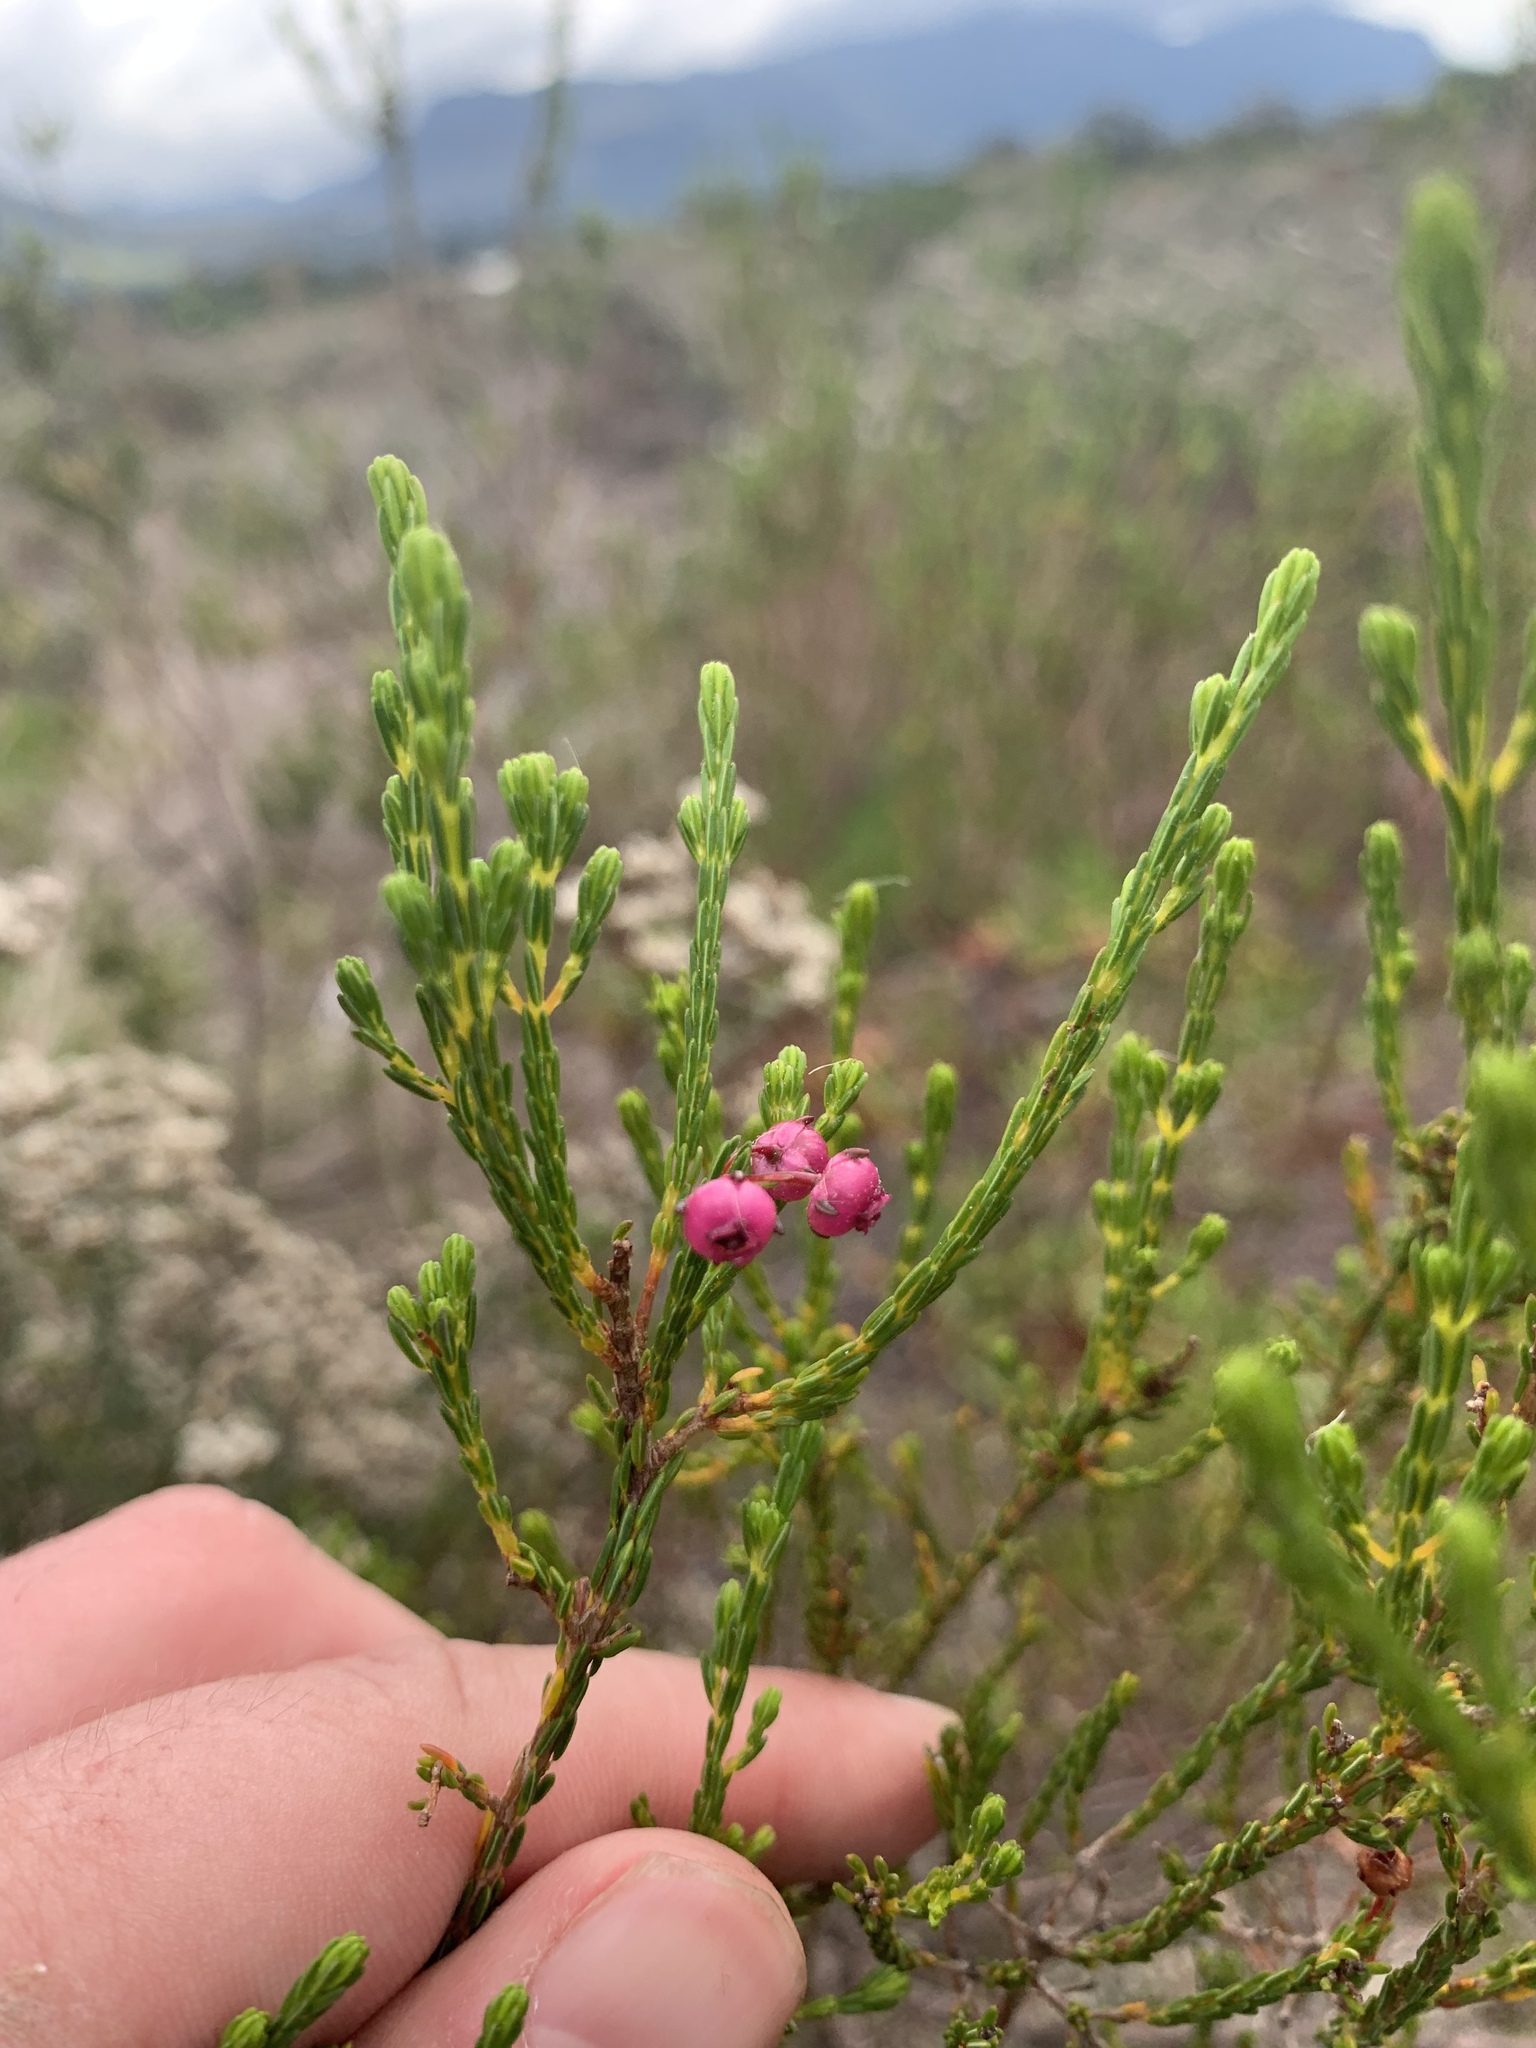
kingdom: Plantae
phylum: Tracheophyta
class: Magnoliopsida
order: Ericales
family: Ericaceae
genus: Erica
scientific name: Erica ferrea
